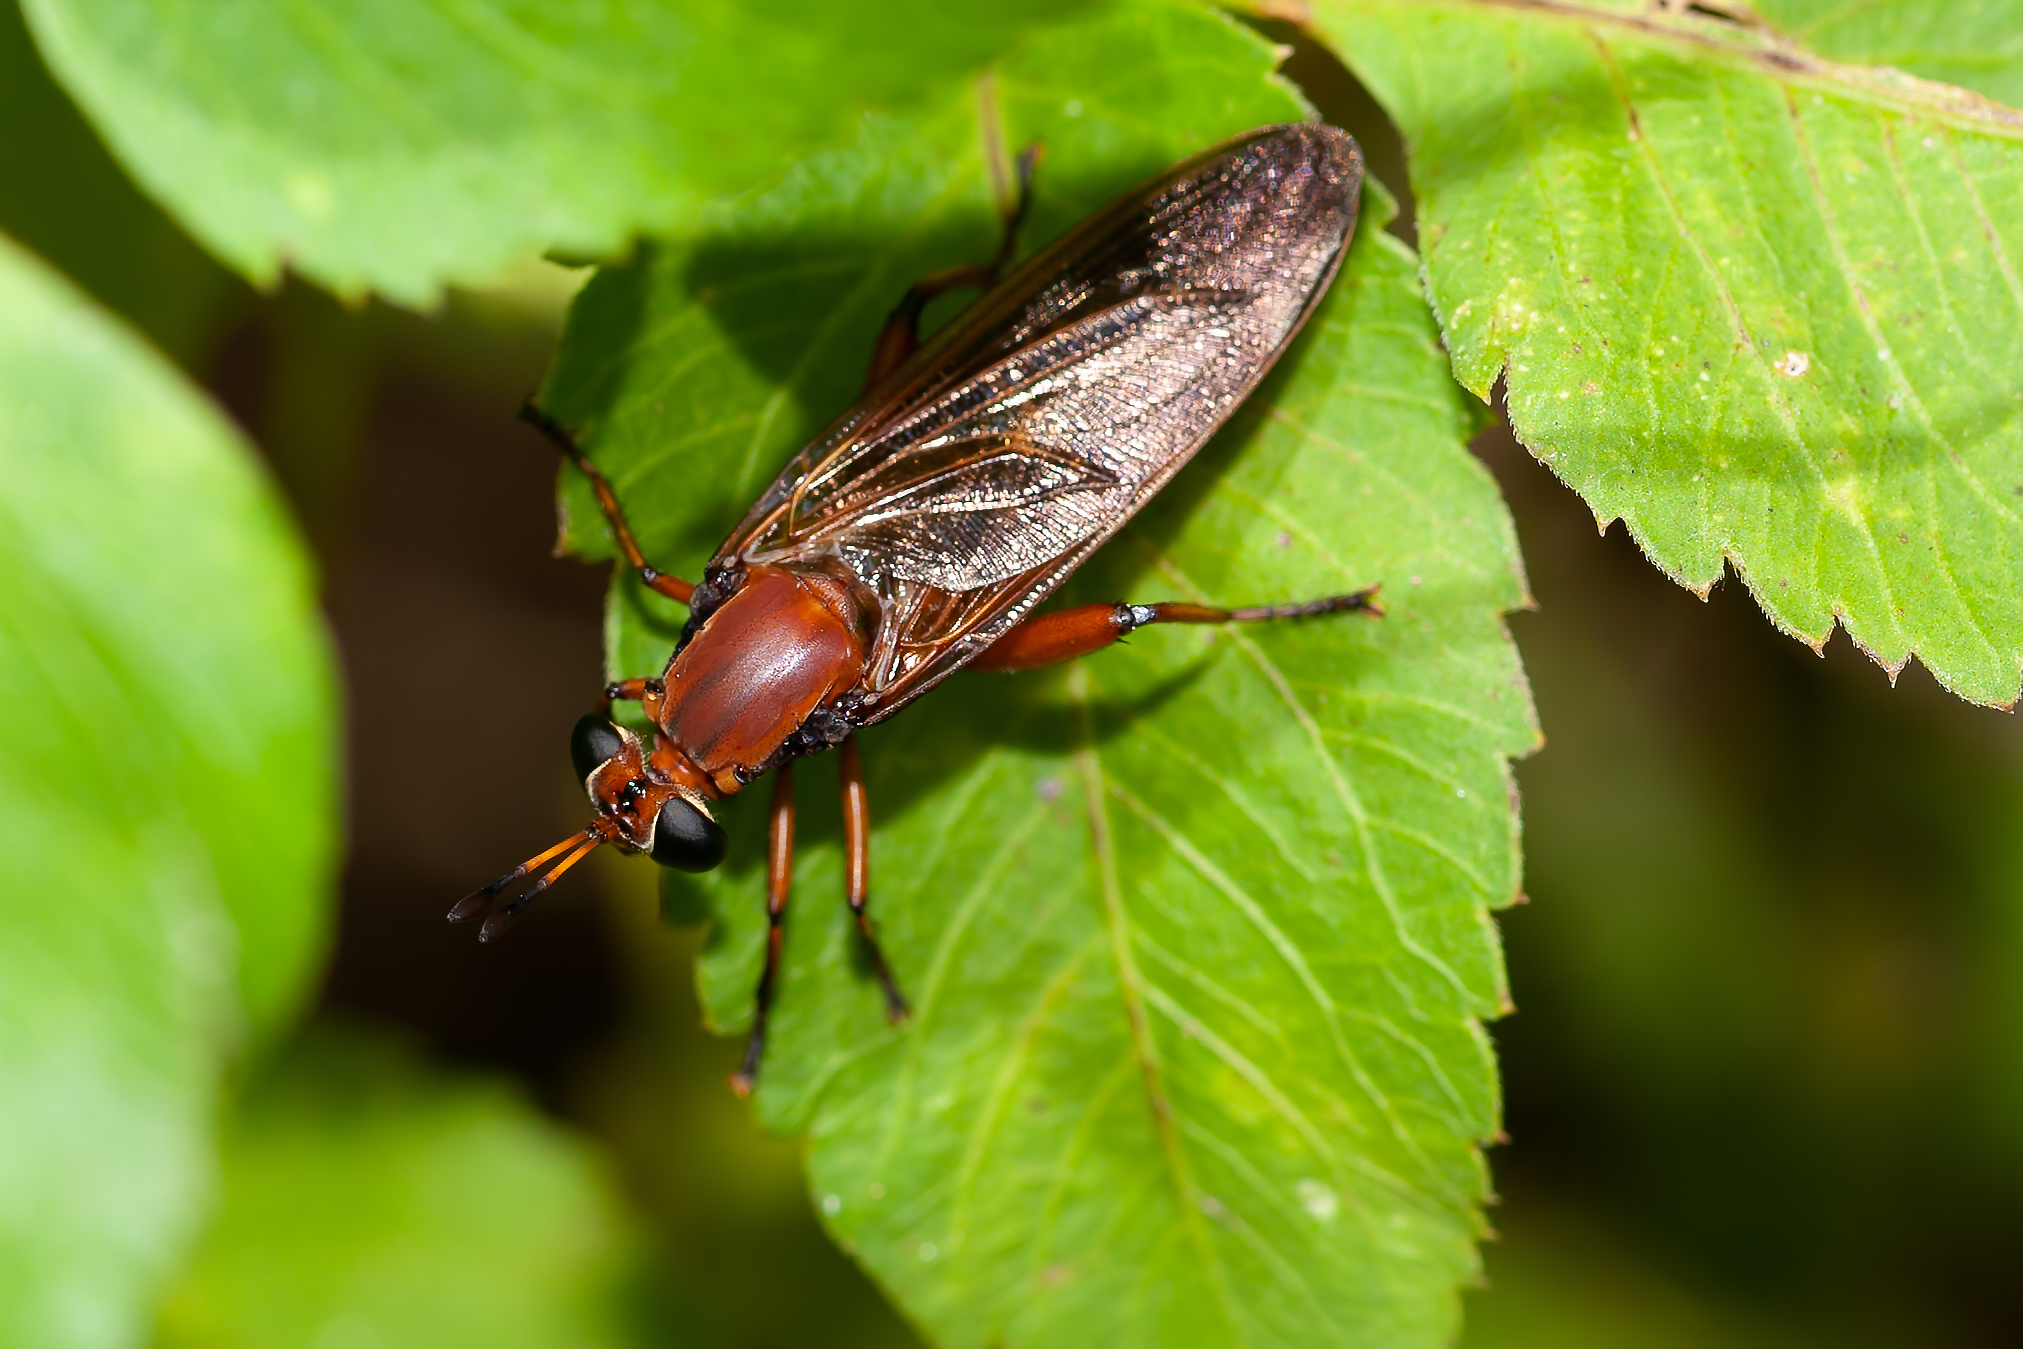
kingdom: Animalia
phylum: Arthropoda
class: Insecta
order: Diptera
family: Mydidae
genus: Mydas
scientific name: Mydas maculiventris
